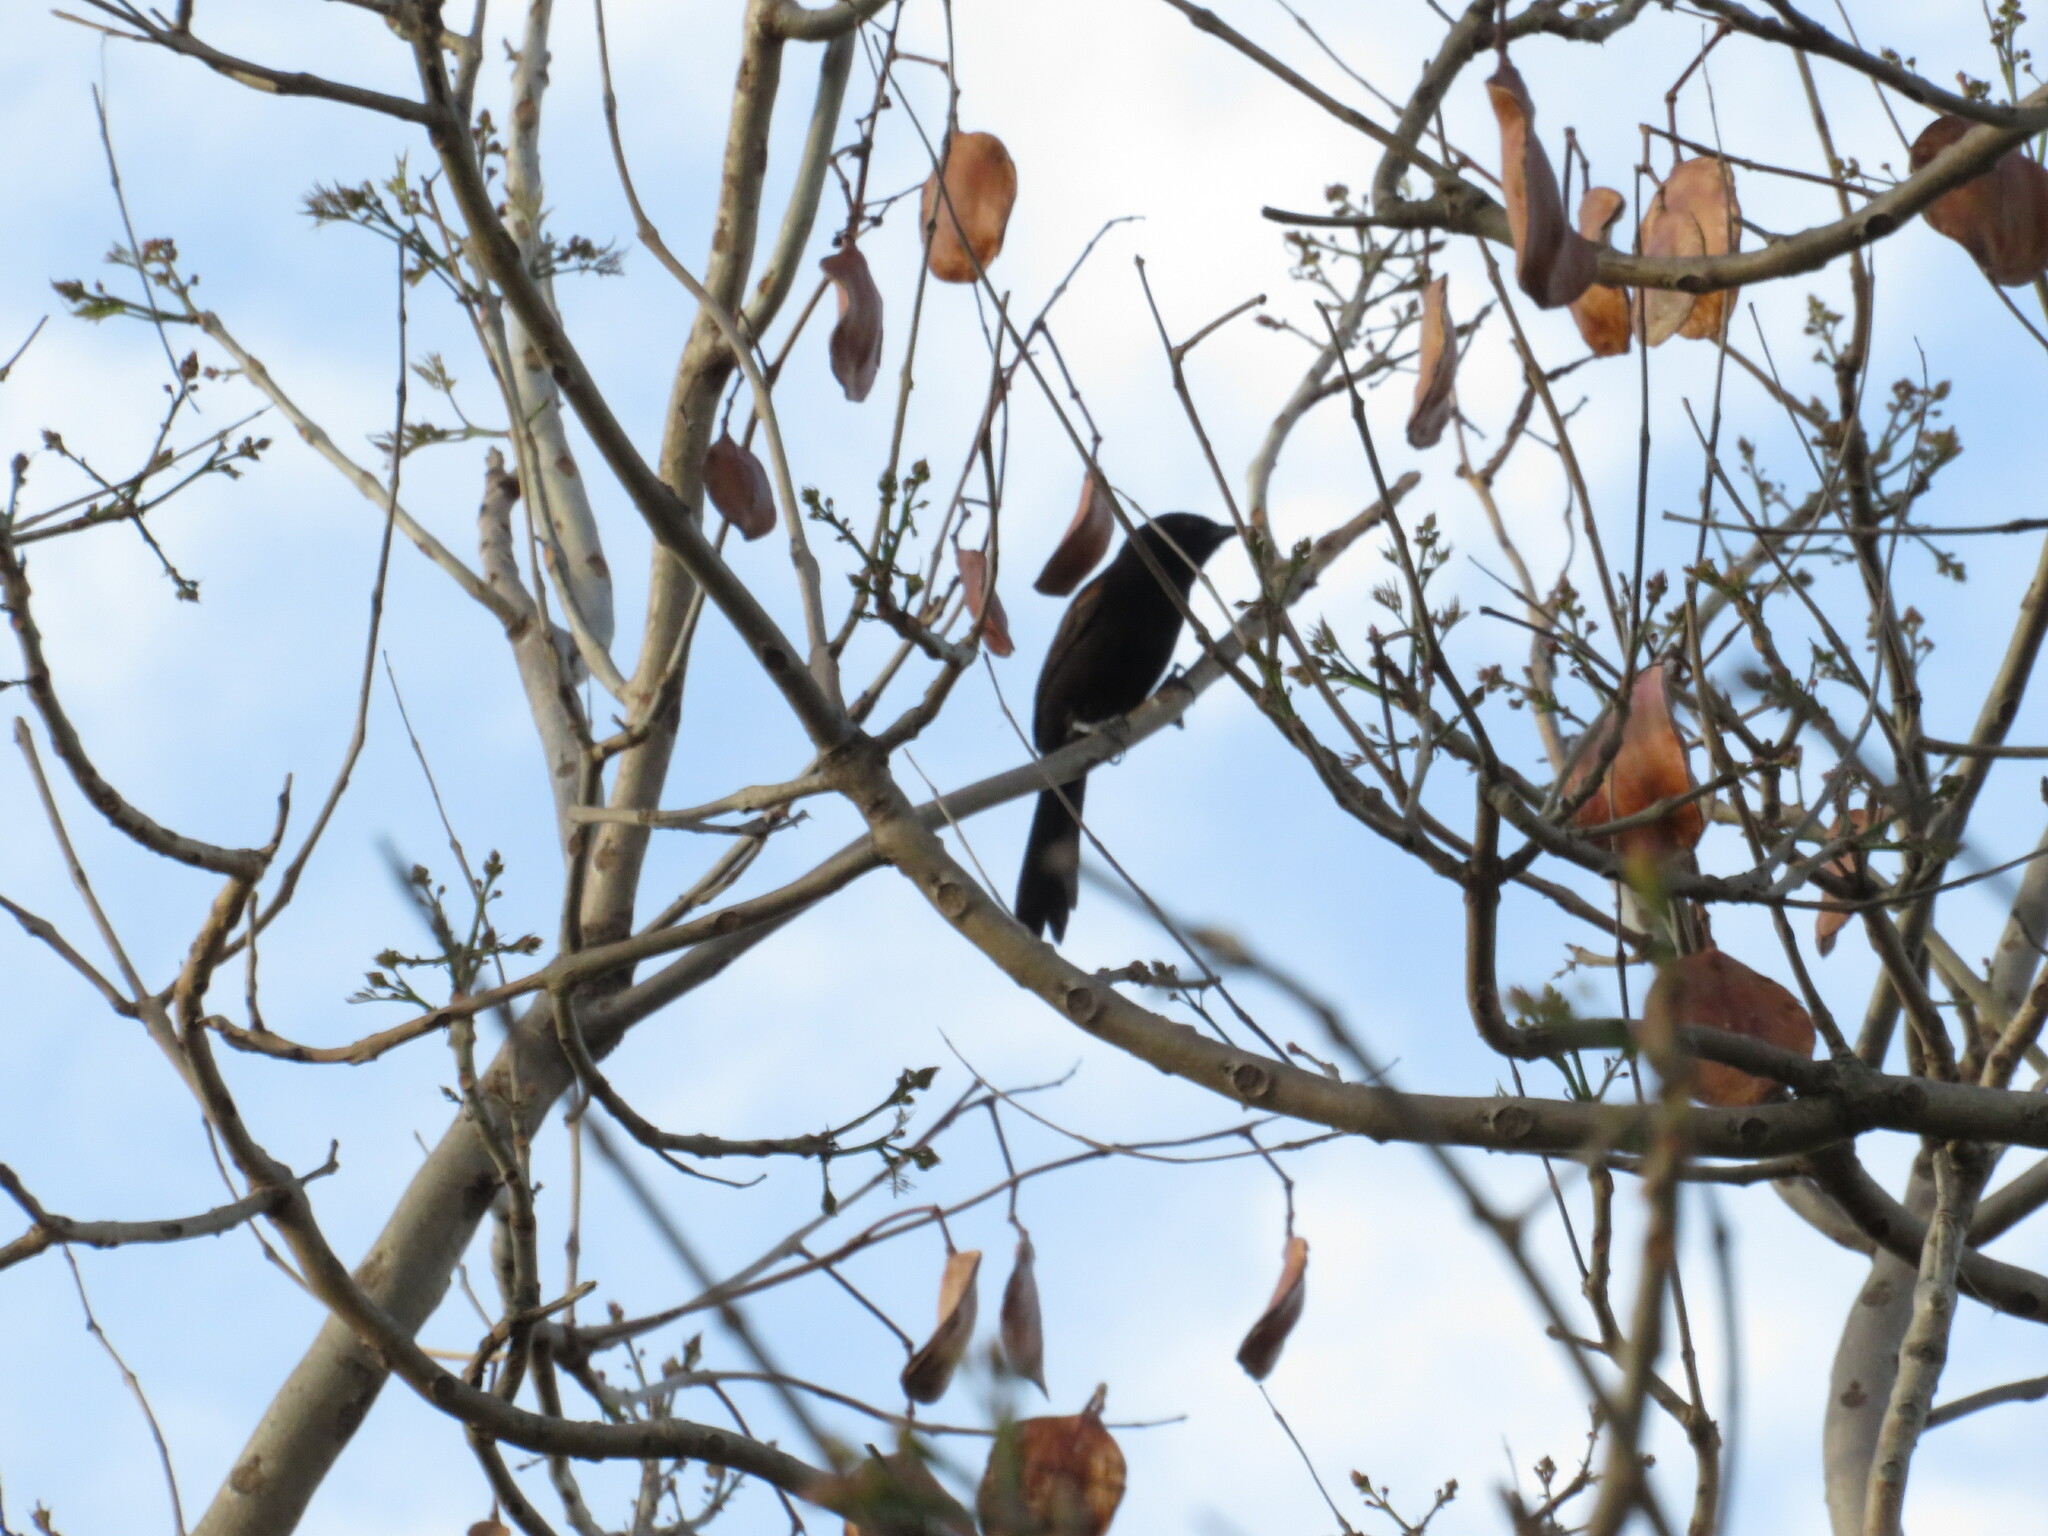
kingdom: Animalia
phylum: Chordata
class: Aves
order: Passeriformes
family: Icteridae
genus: Icterus
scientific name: Icterus cayanensis
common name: Epaulet oriole
